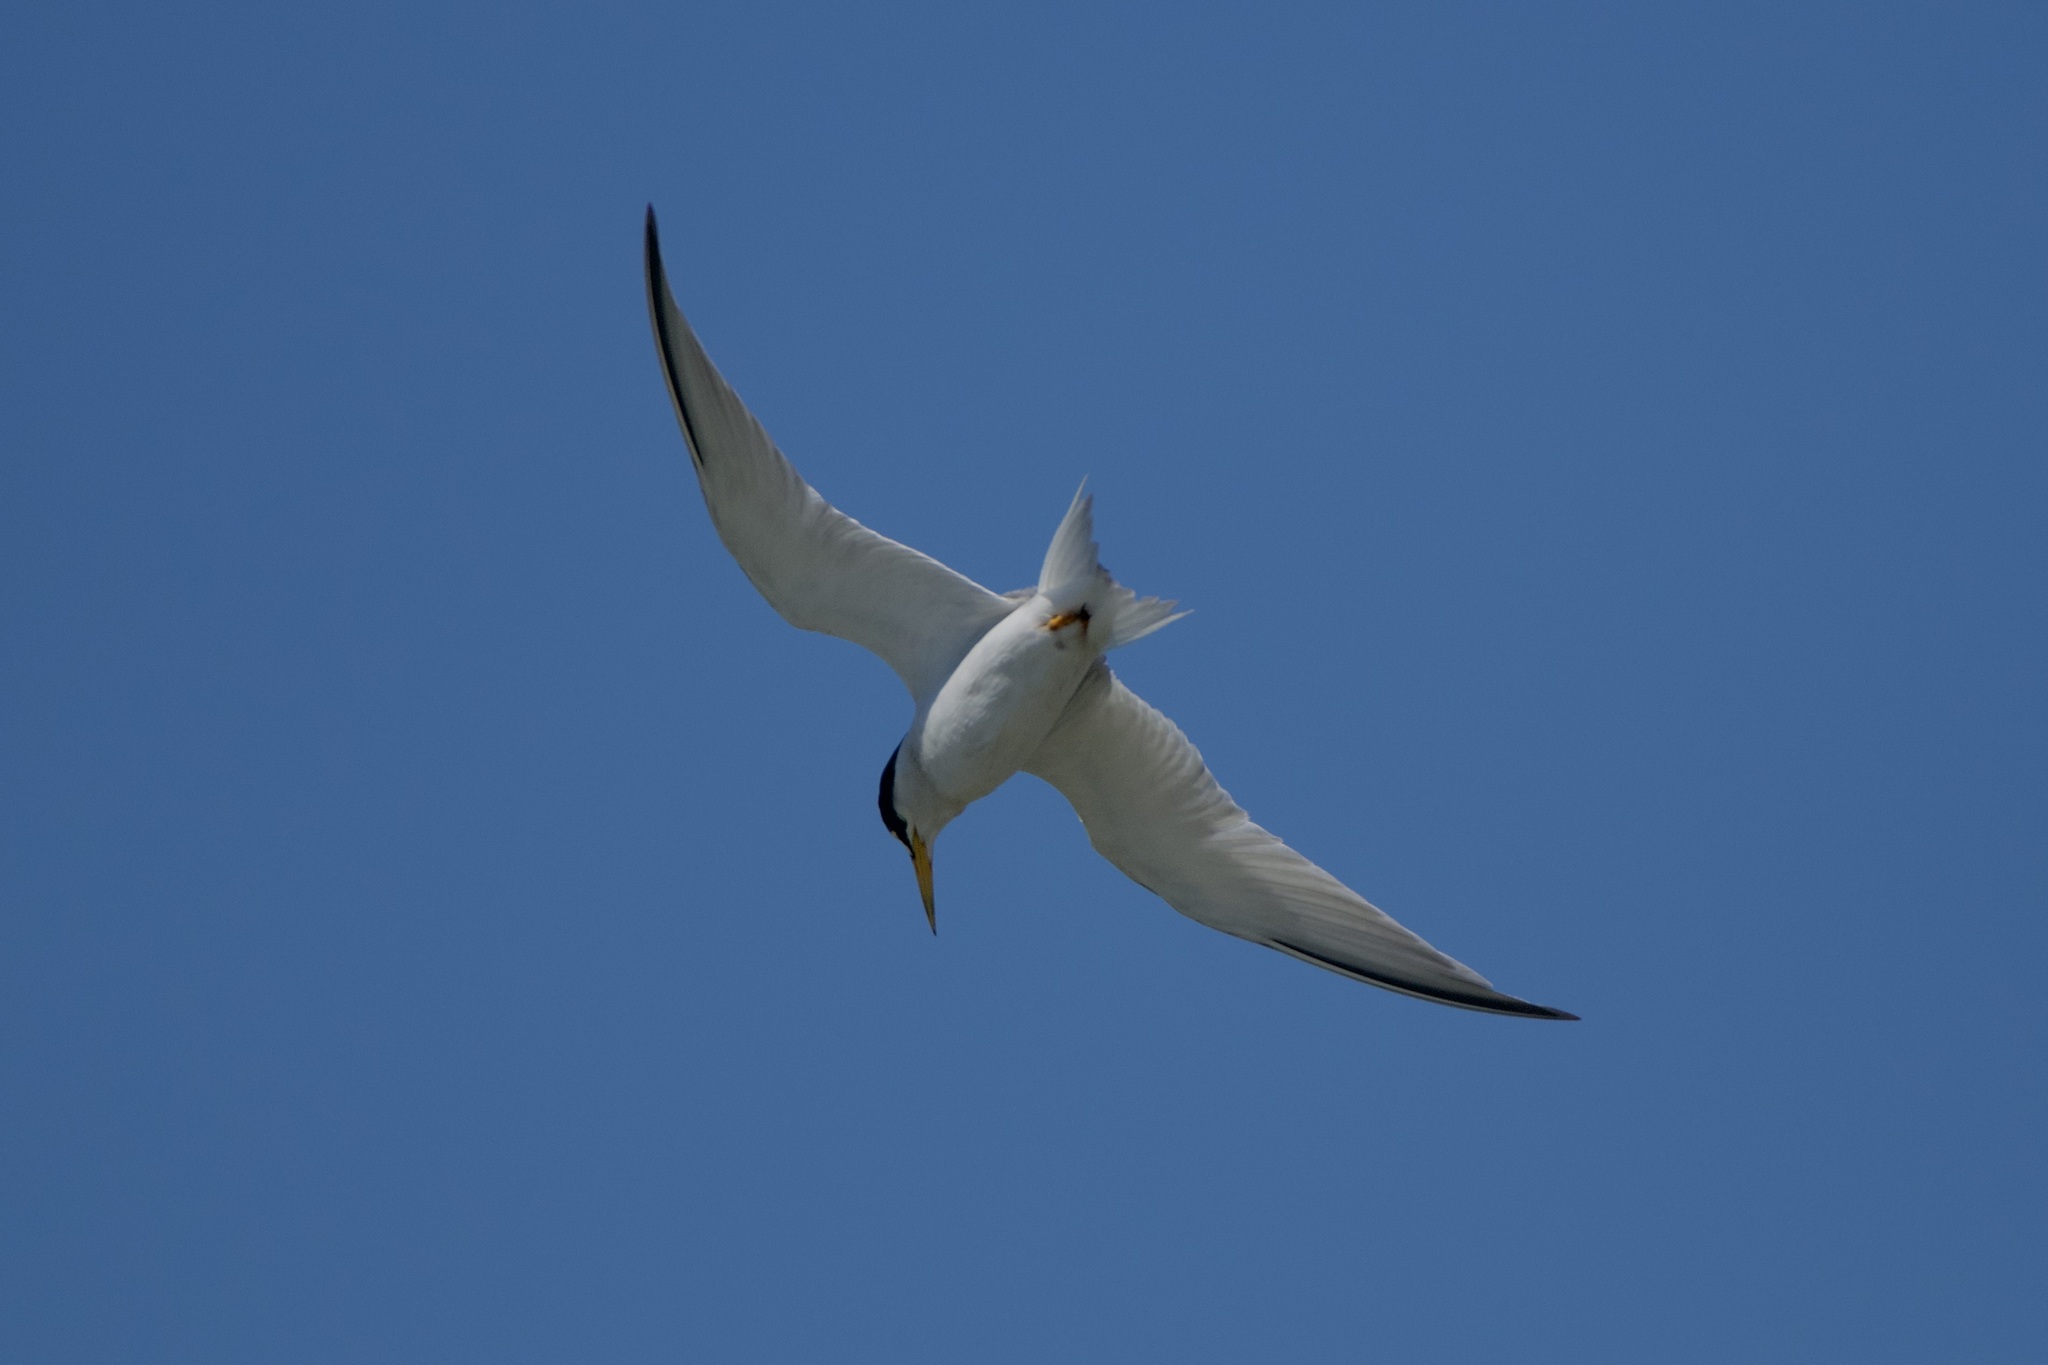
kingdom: Animalia
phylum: Chordata
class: Aves
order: Charadriiformes
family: Laridae
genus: Sternula
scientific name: Sternula antillarum
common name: Least tern
